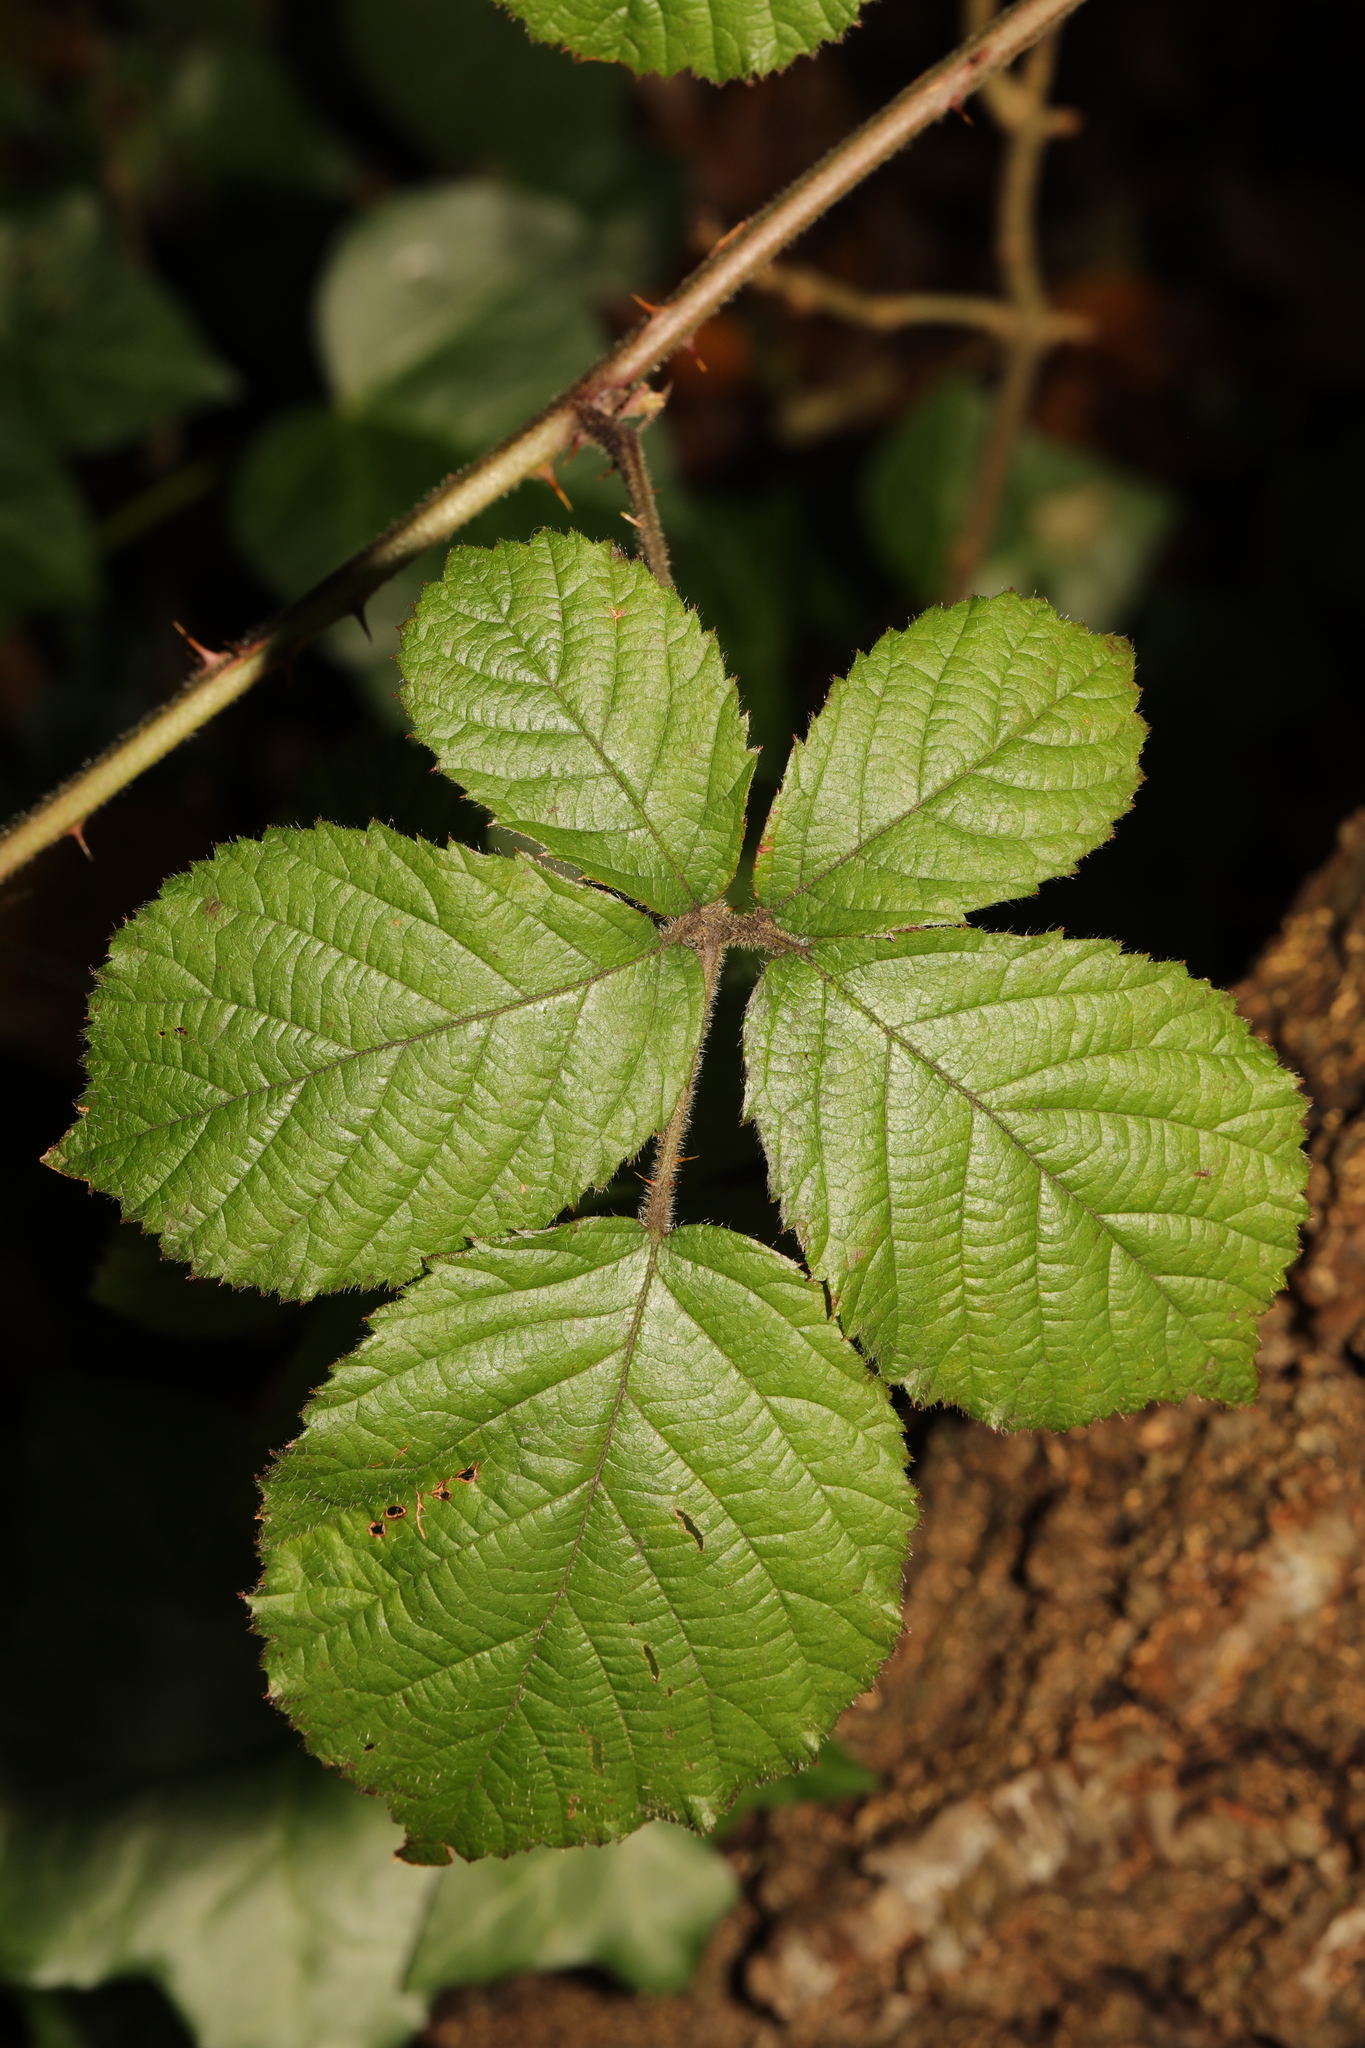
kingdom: Plantae
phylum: Tracheophyta
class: Magnoliopsida
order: Rosales
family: Rosaceae
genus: Rubus
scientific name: Rubus vestitus
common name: European blackberry
